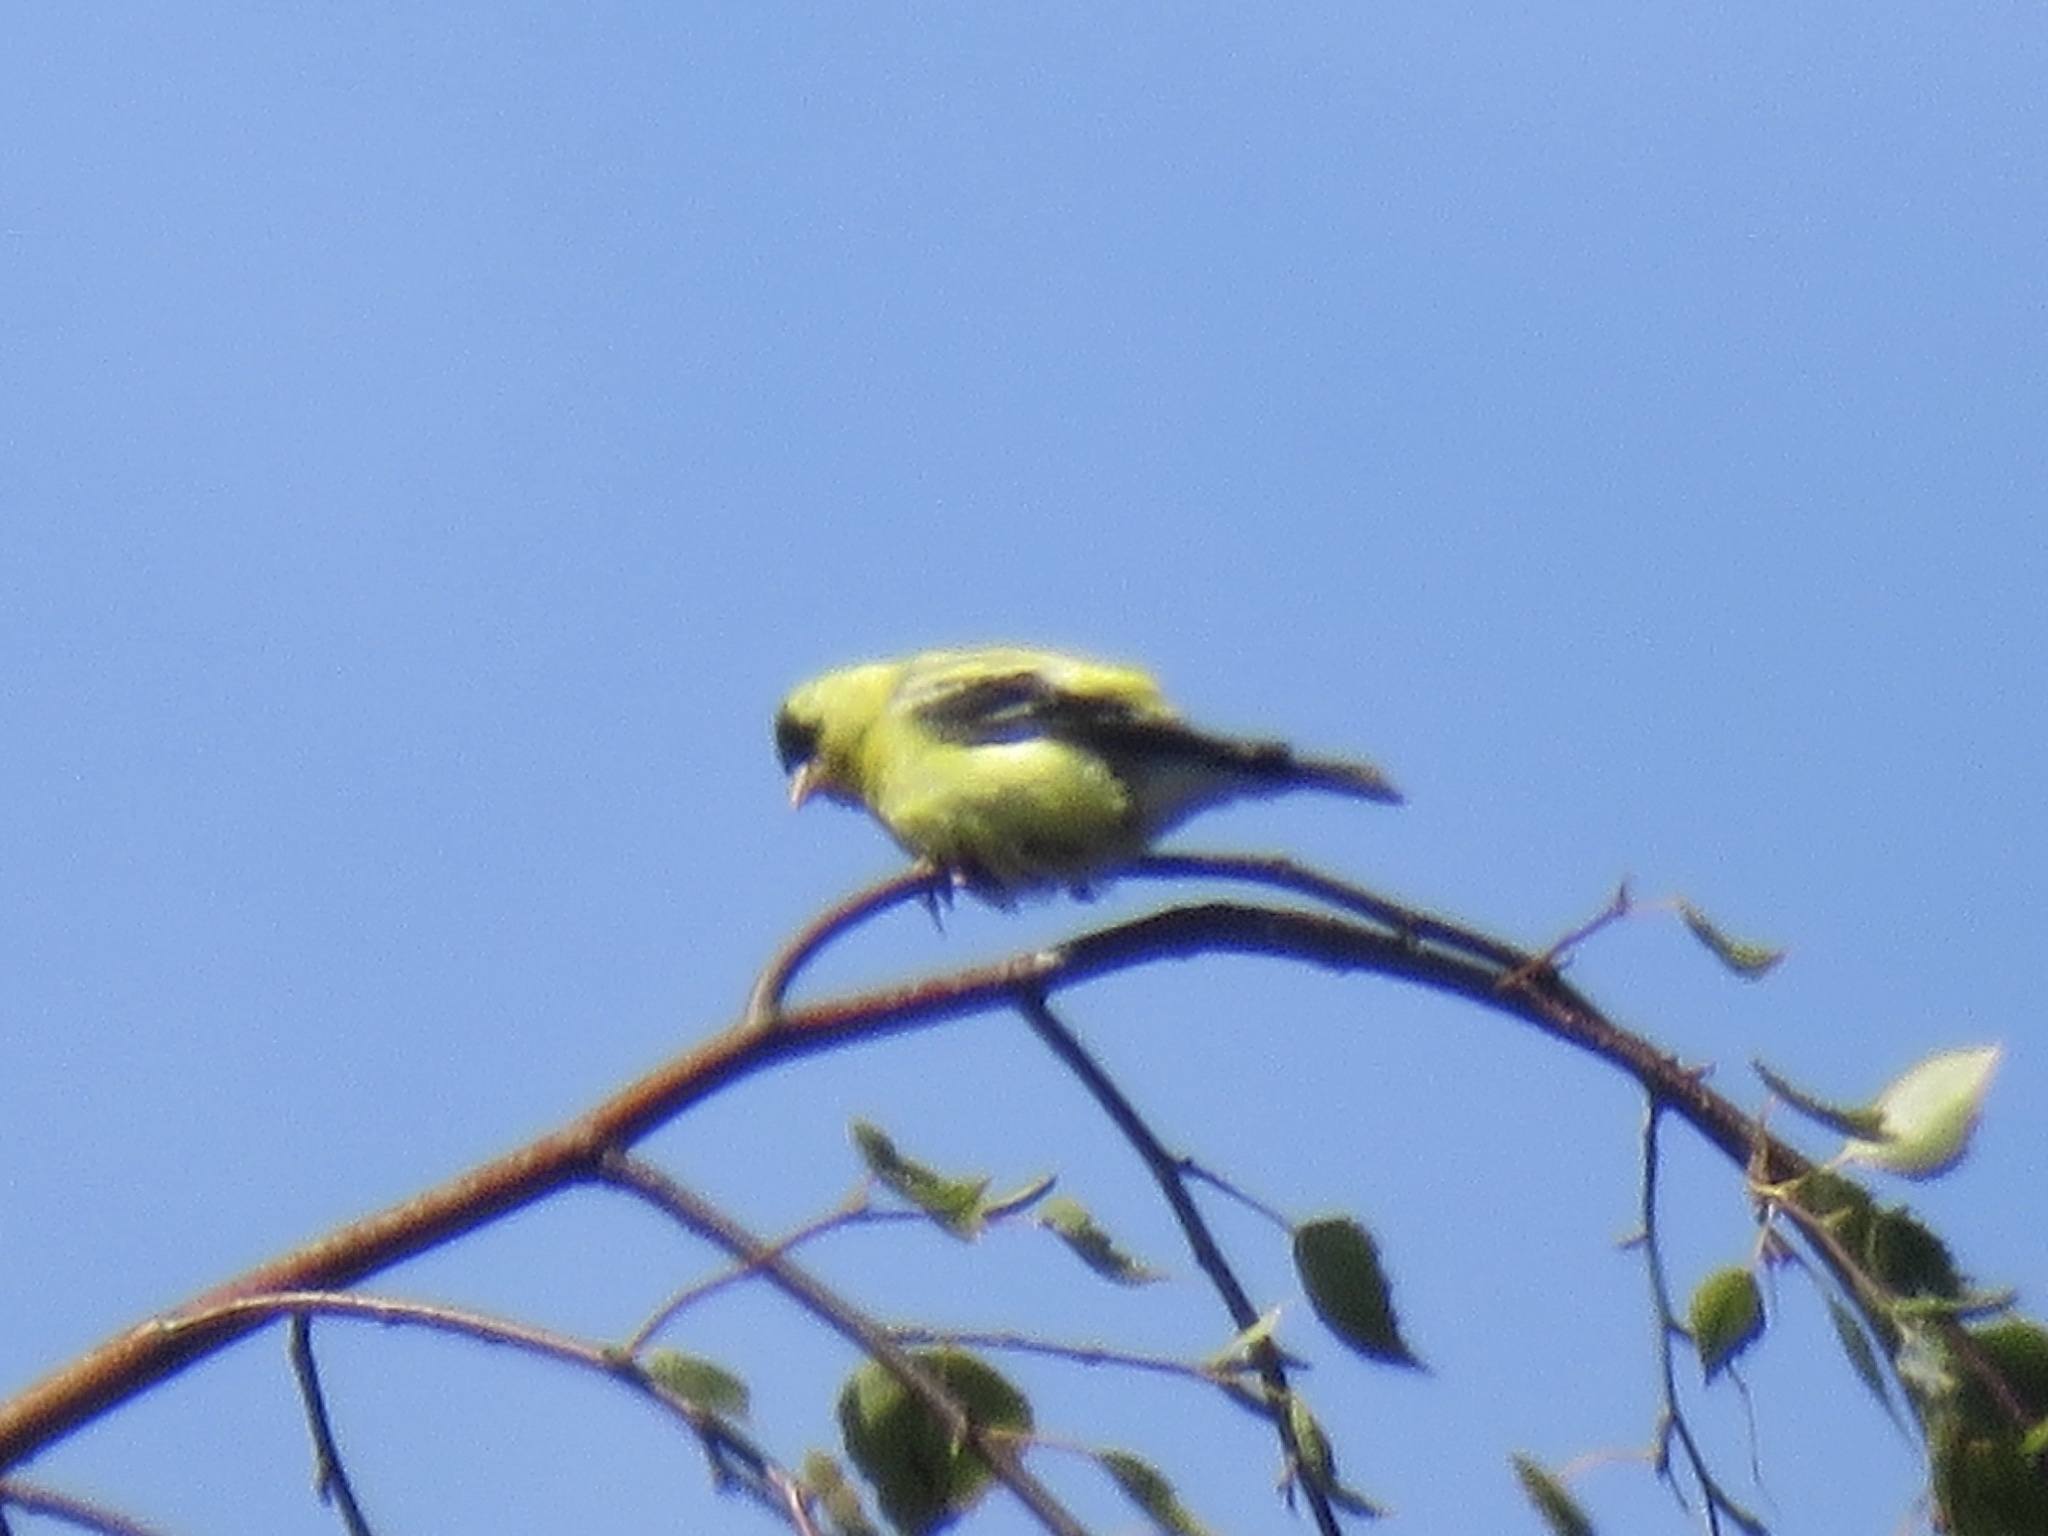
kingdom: Animalia
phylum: Chordata
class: Aves
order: Passeriformes
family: Fringillidae
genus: Spinus
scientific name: Spinus tristis
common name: American goldfinch
